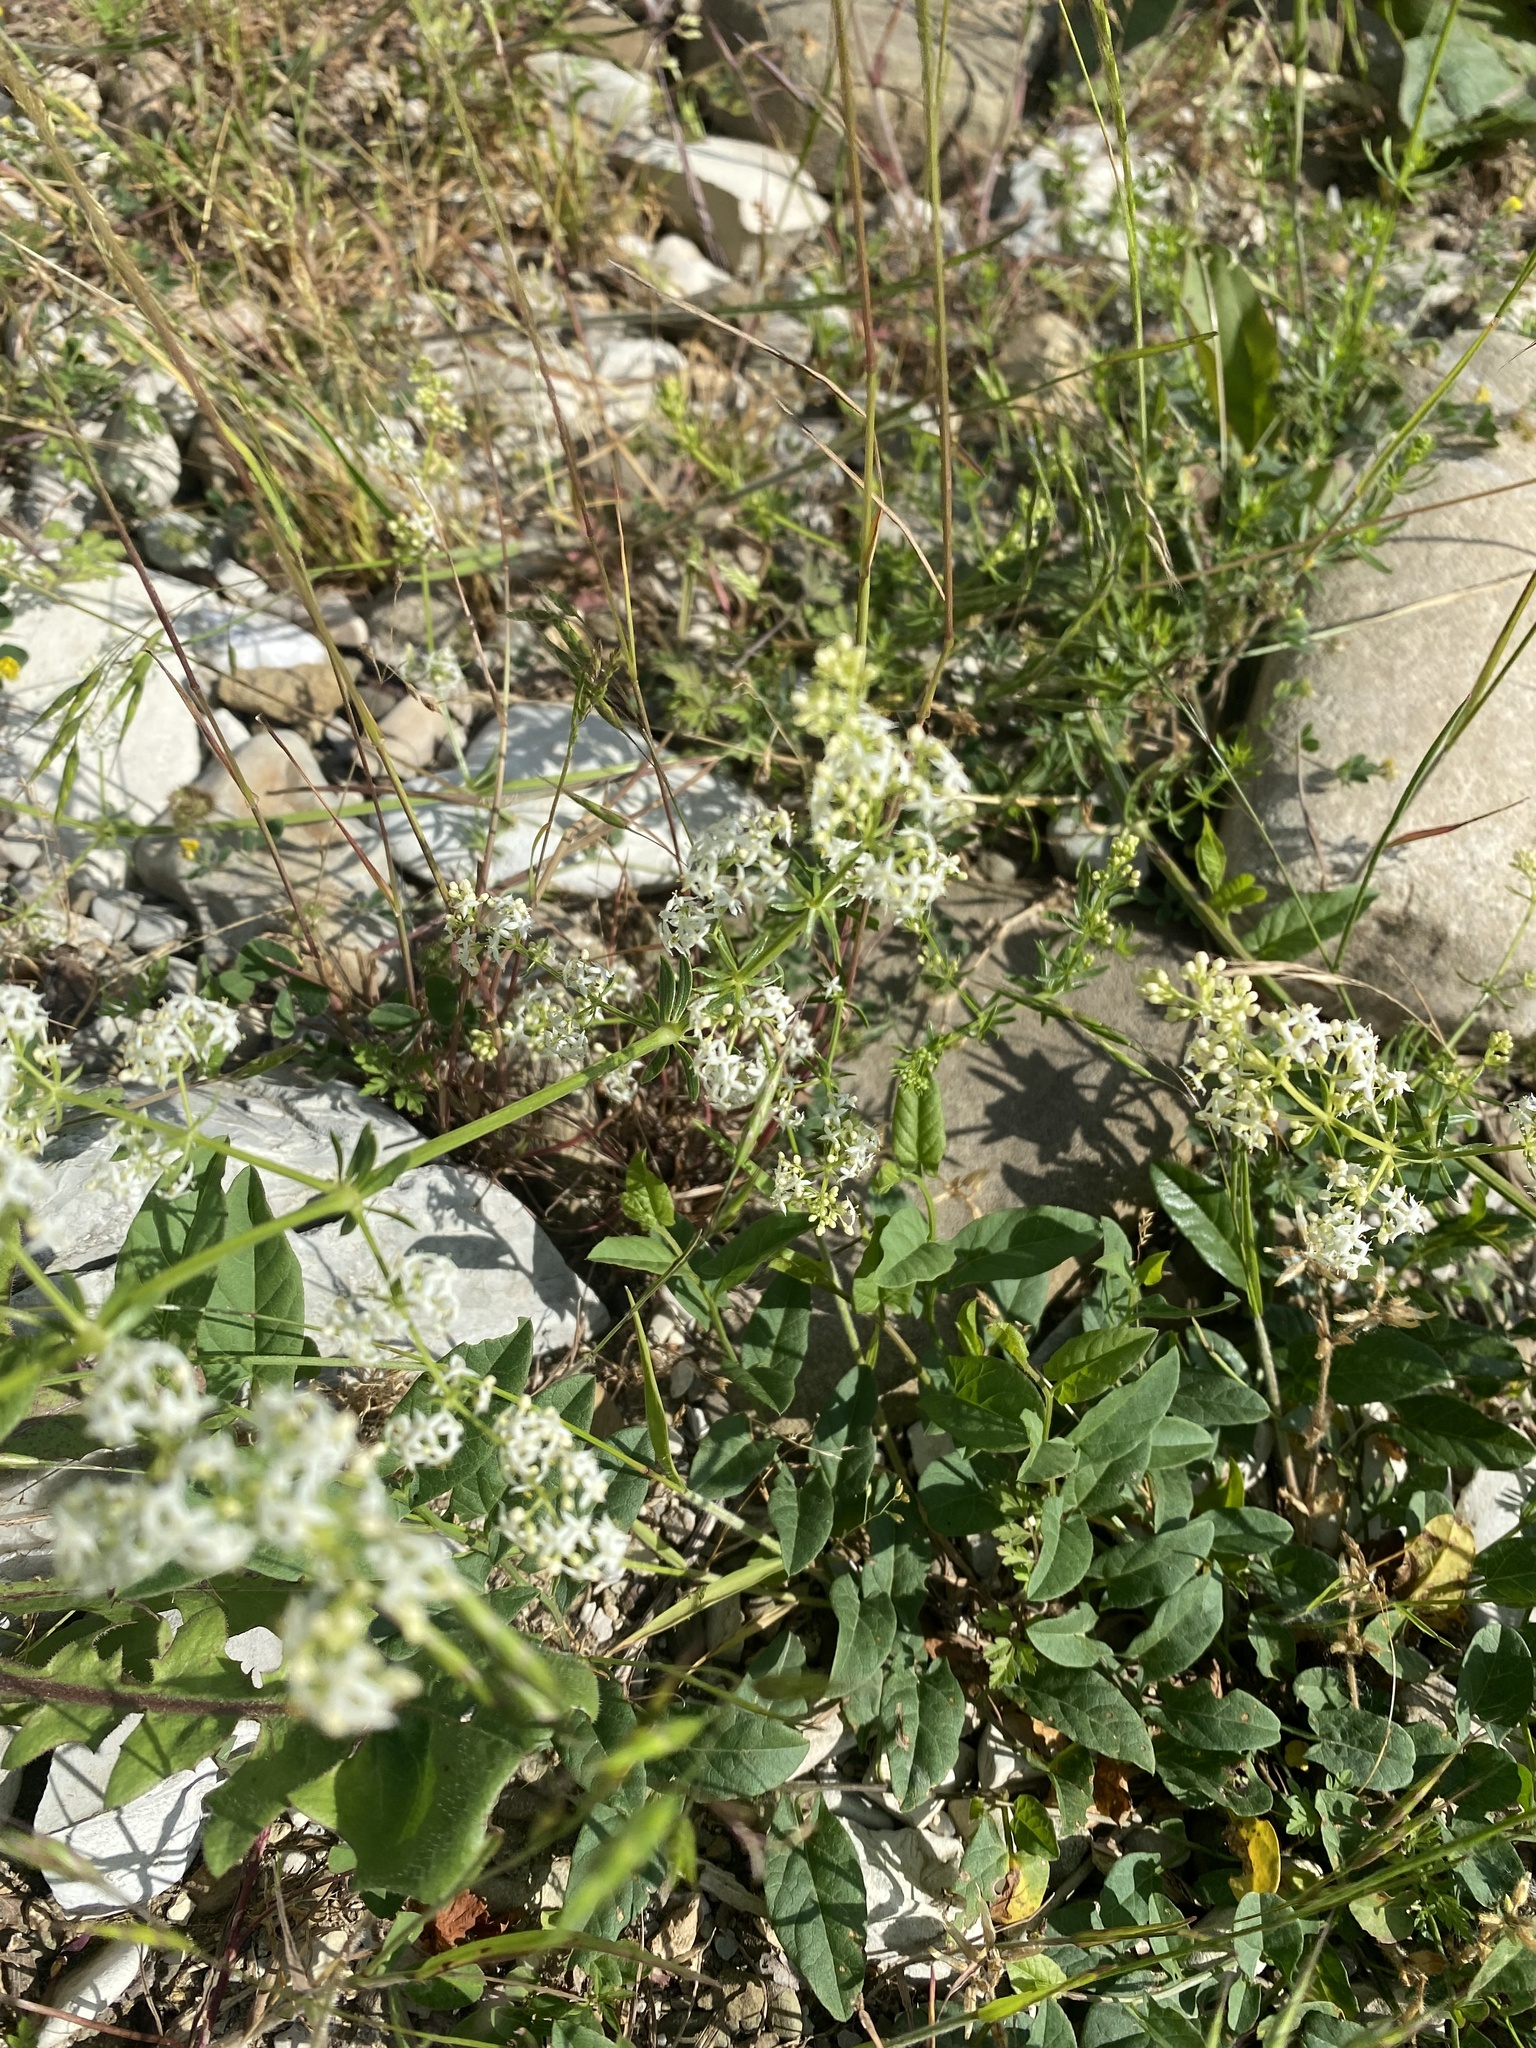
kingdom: Plantae
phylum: Tracheophyta
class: Magnoliopsida
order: Gentianales
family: Rubiaceae
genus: Galium
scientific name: Galium mollugo
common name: Hedge bedstraw
